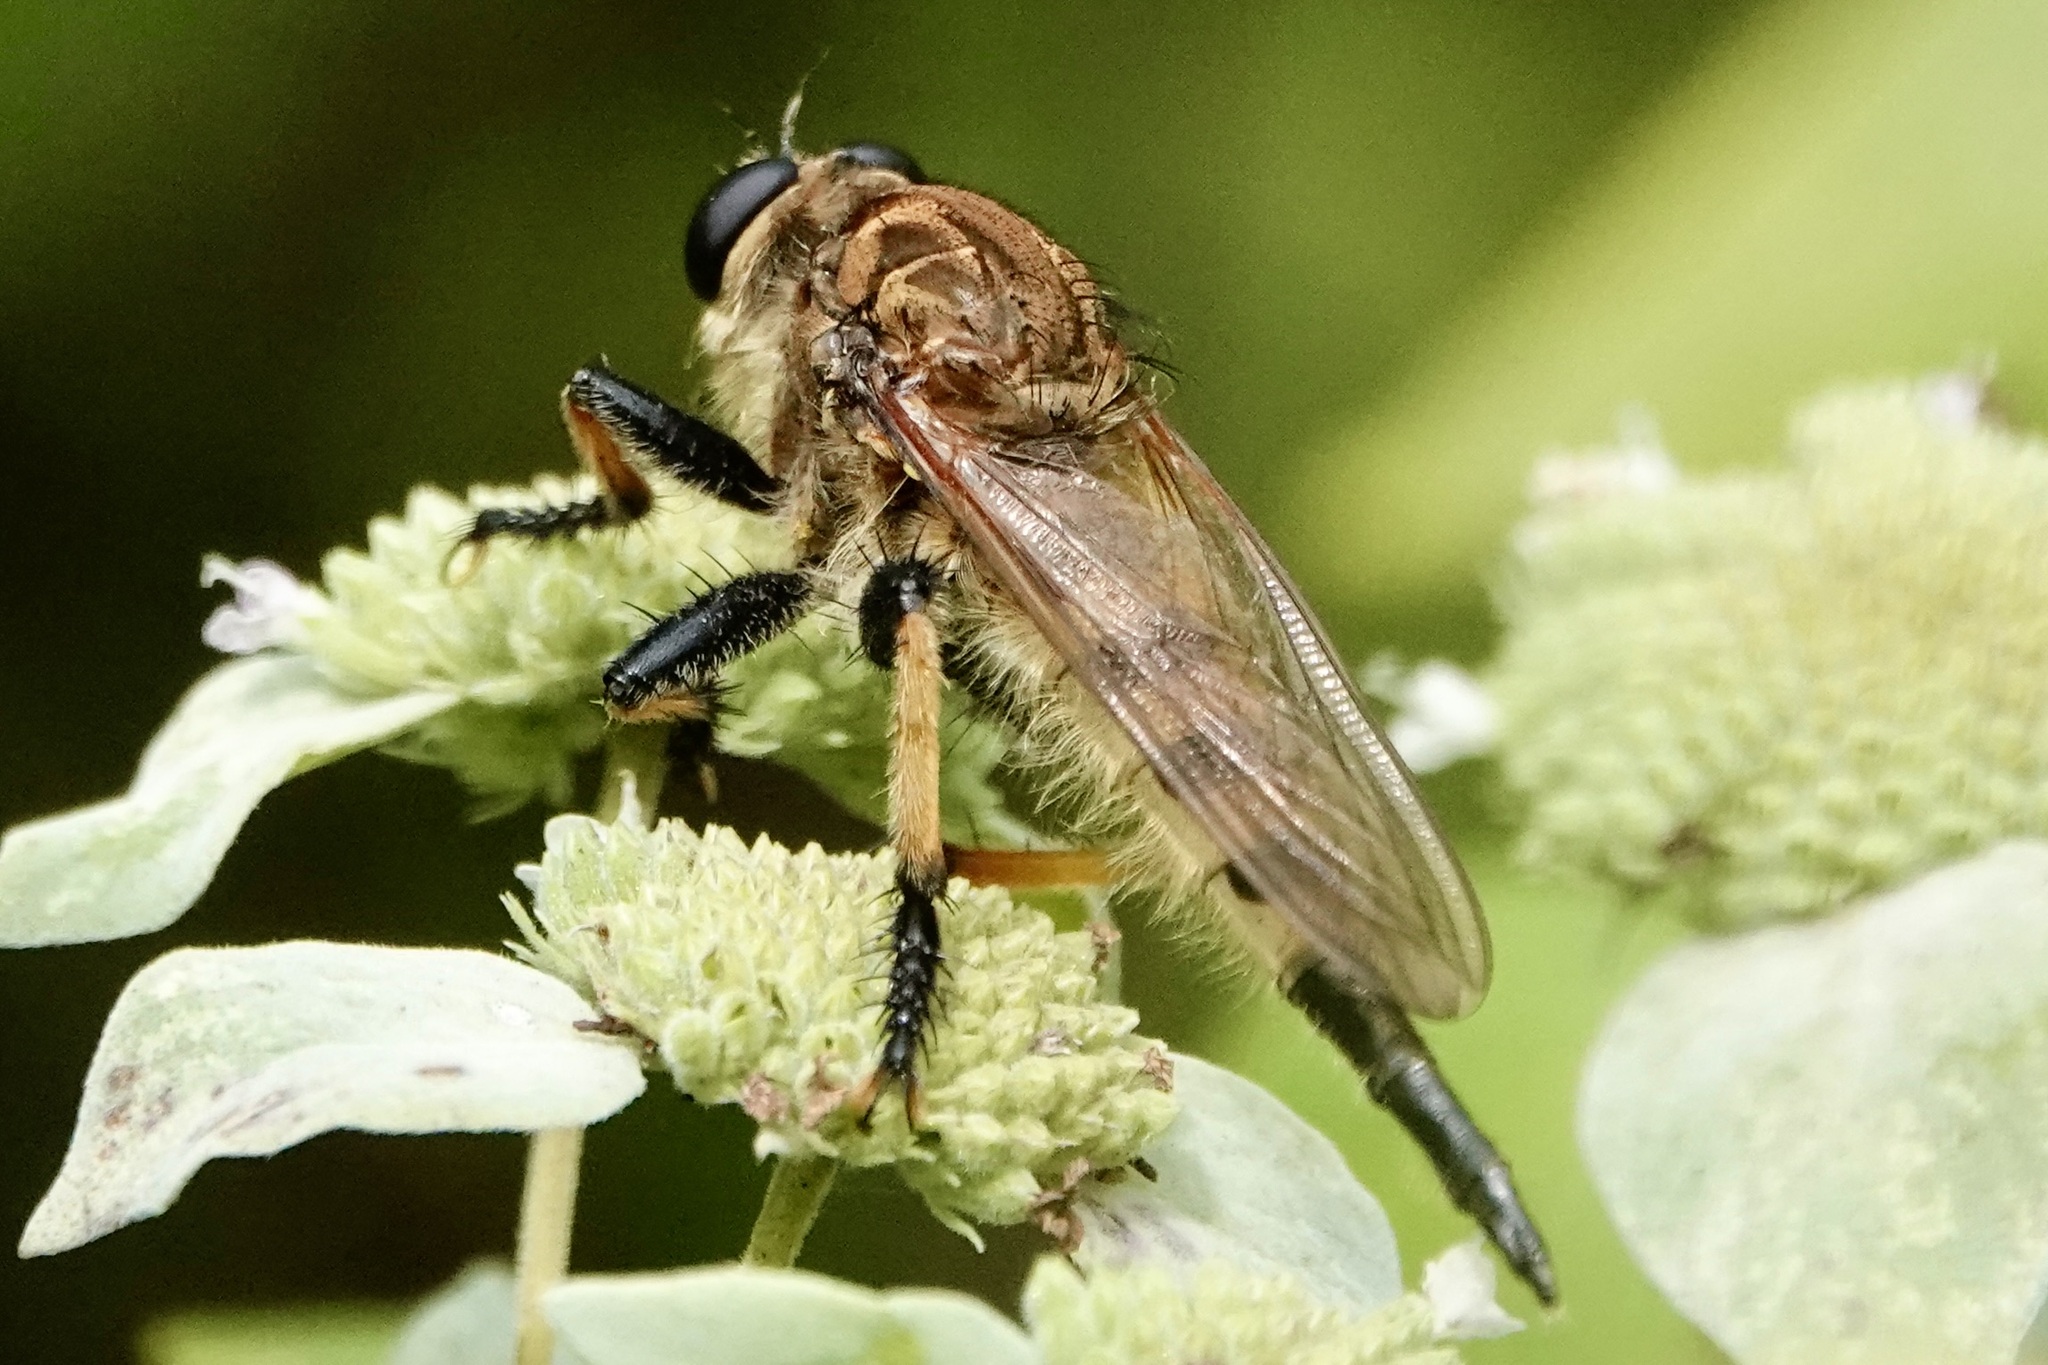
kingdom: Animalia
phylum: Arthropoda
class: Insecta
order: Diptera
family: Asilidae
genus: Promachus
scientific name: Promachus rufipes
